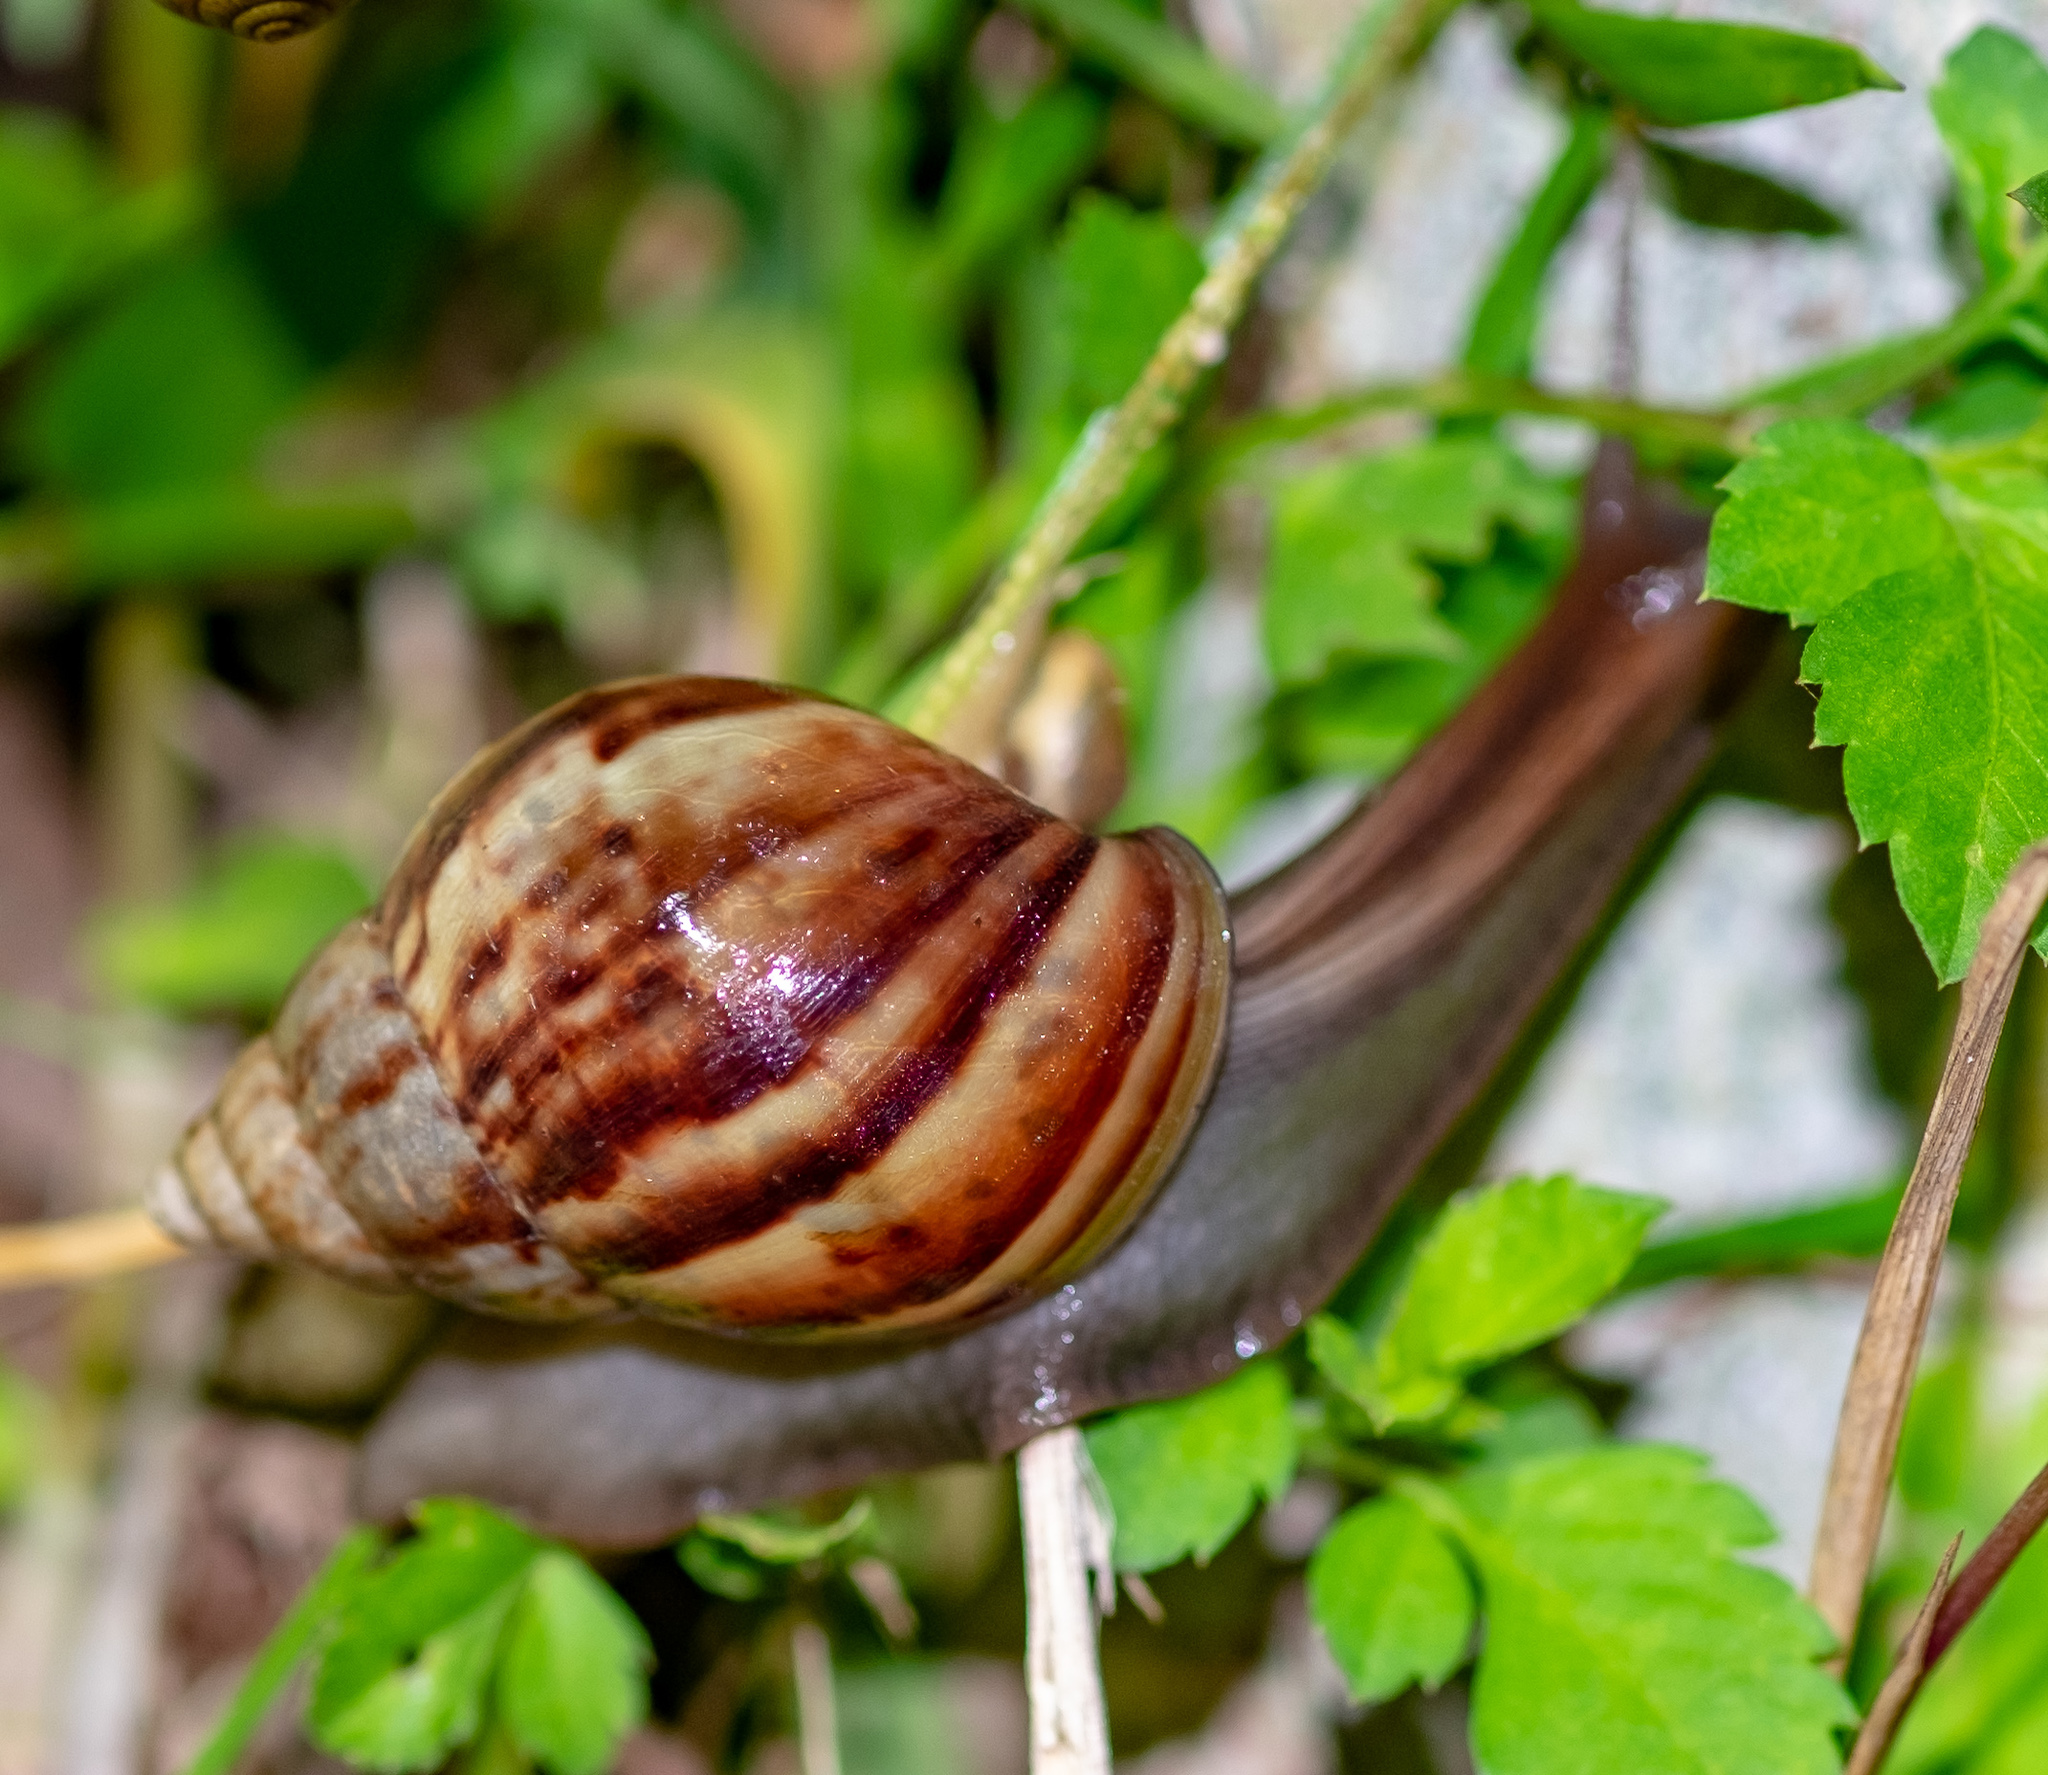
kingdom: Animalia
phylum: Mollusca
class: Gastropoda
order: Stylommatophora
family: Achatinidae
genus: Lissachatina
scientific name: Lissachatina fulica
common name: Giant african snail
